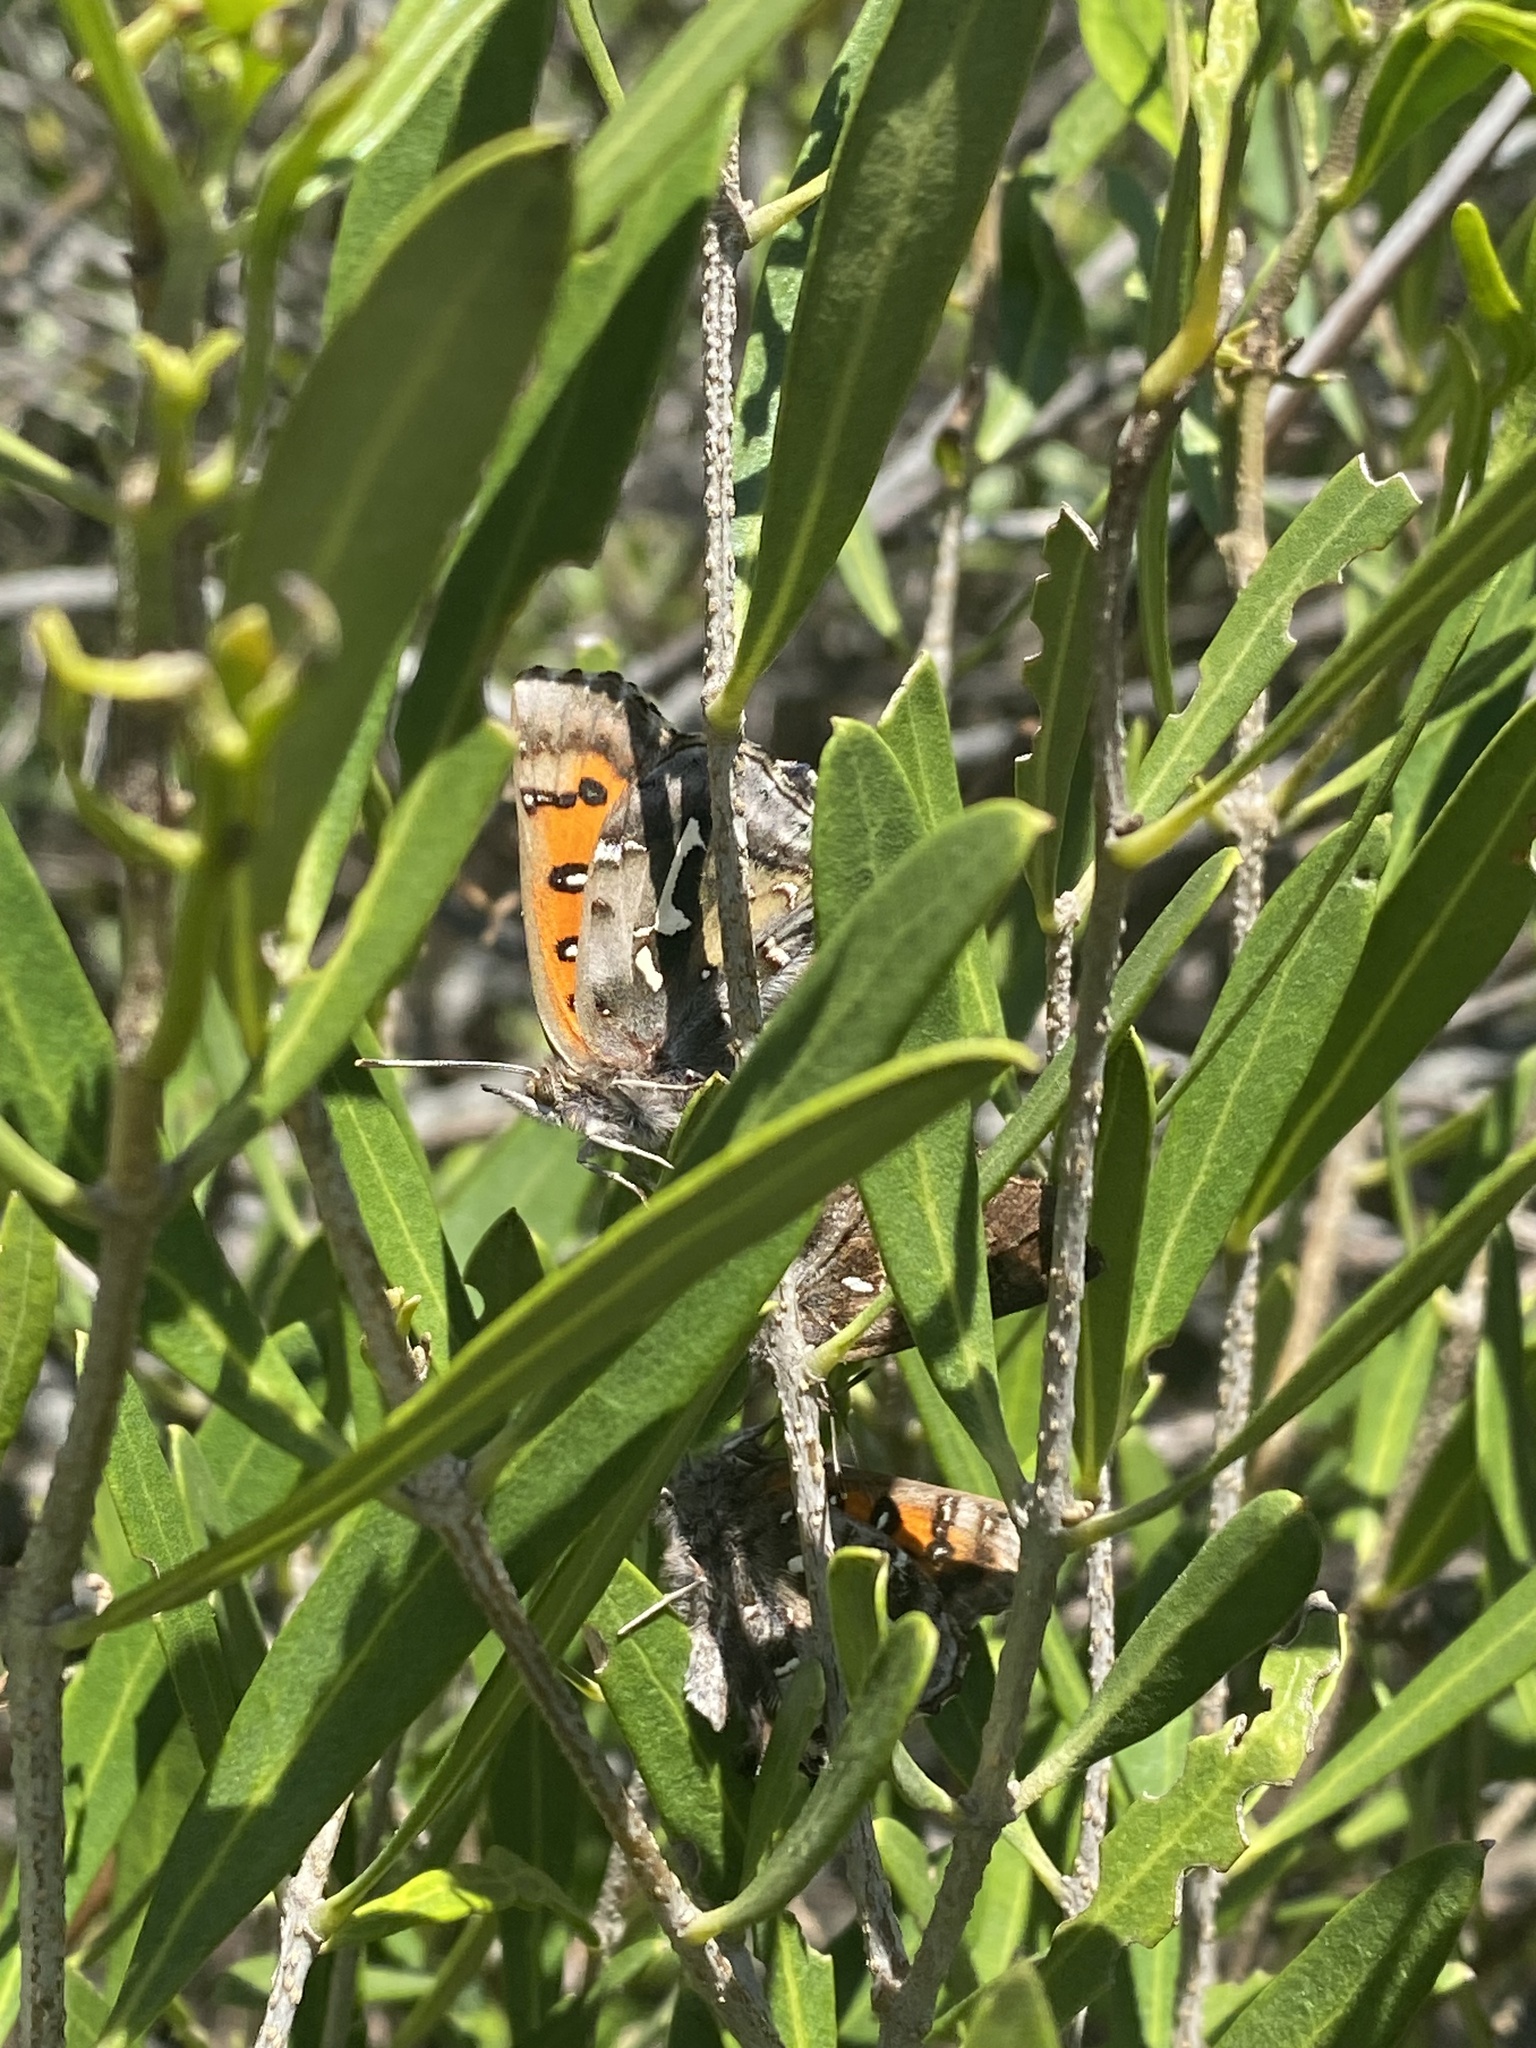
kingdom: Animalia
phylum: Arthropoda
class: Insecta
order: Lepidoptera
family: Lycaenidae
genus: Phasis
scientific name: Phasis thero
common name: Silver arrowhead
